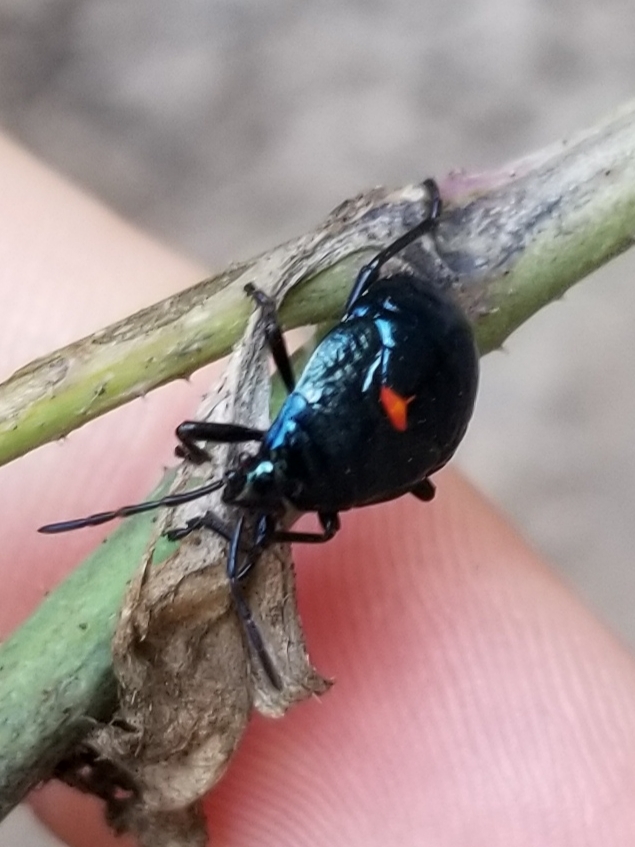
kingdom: Animalia
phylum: Arthropoda
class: Insecta
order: Hemiptera
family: Largidae
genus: Largus
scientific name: Largus californicus
